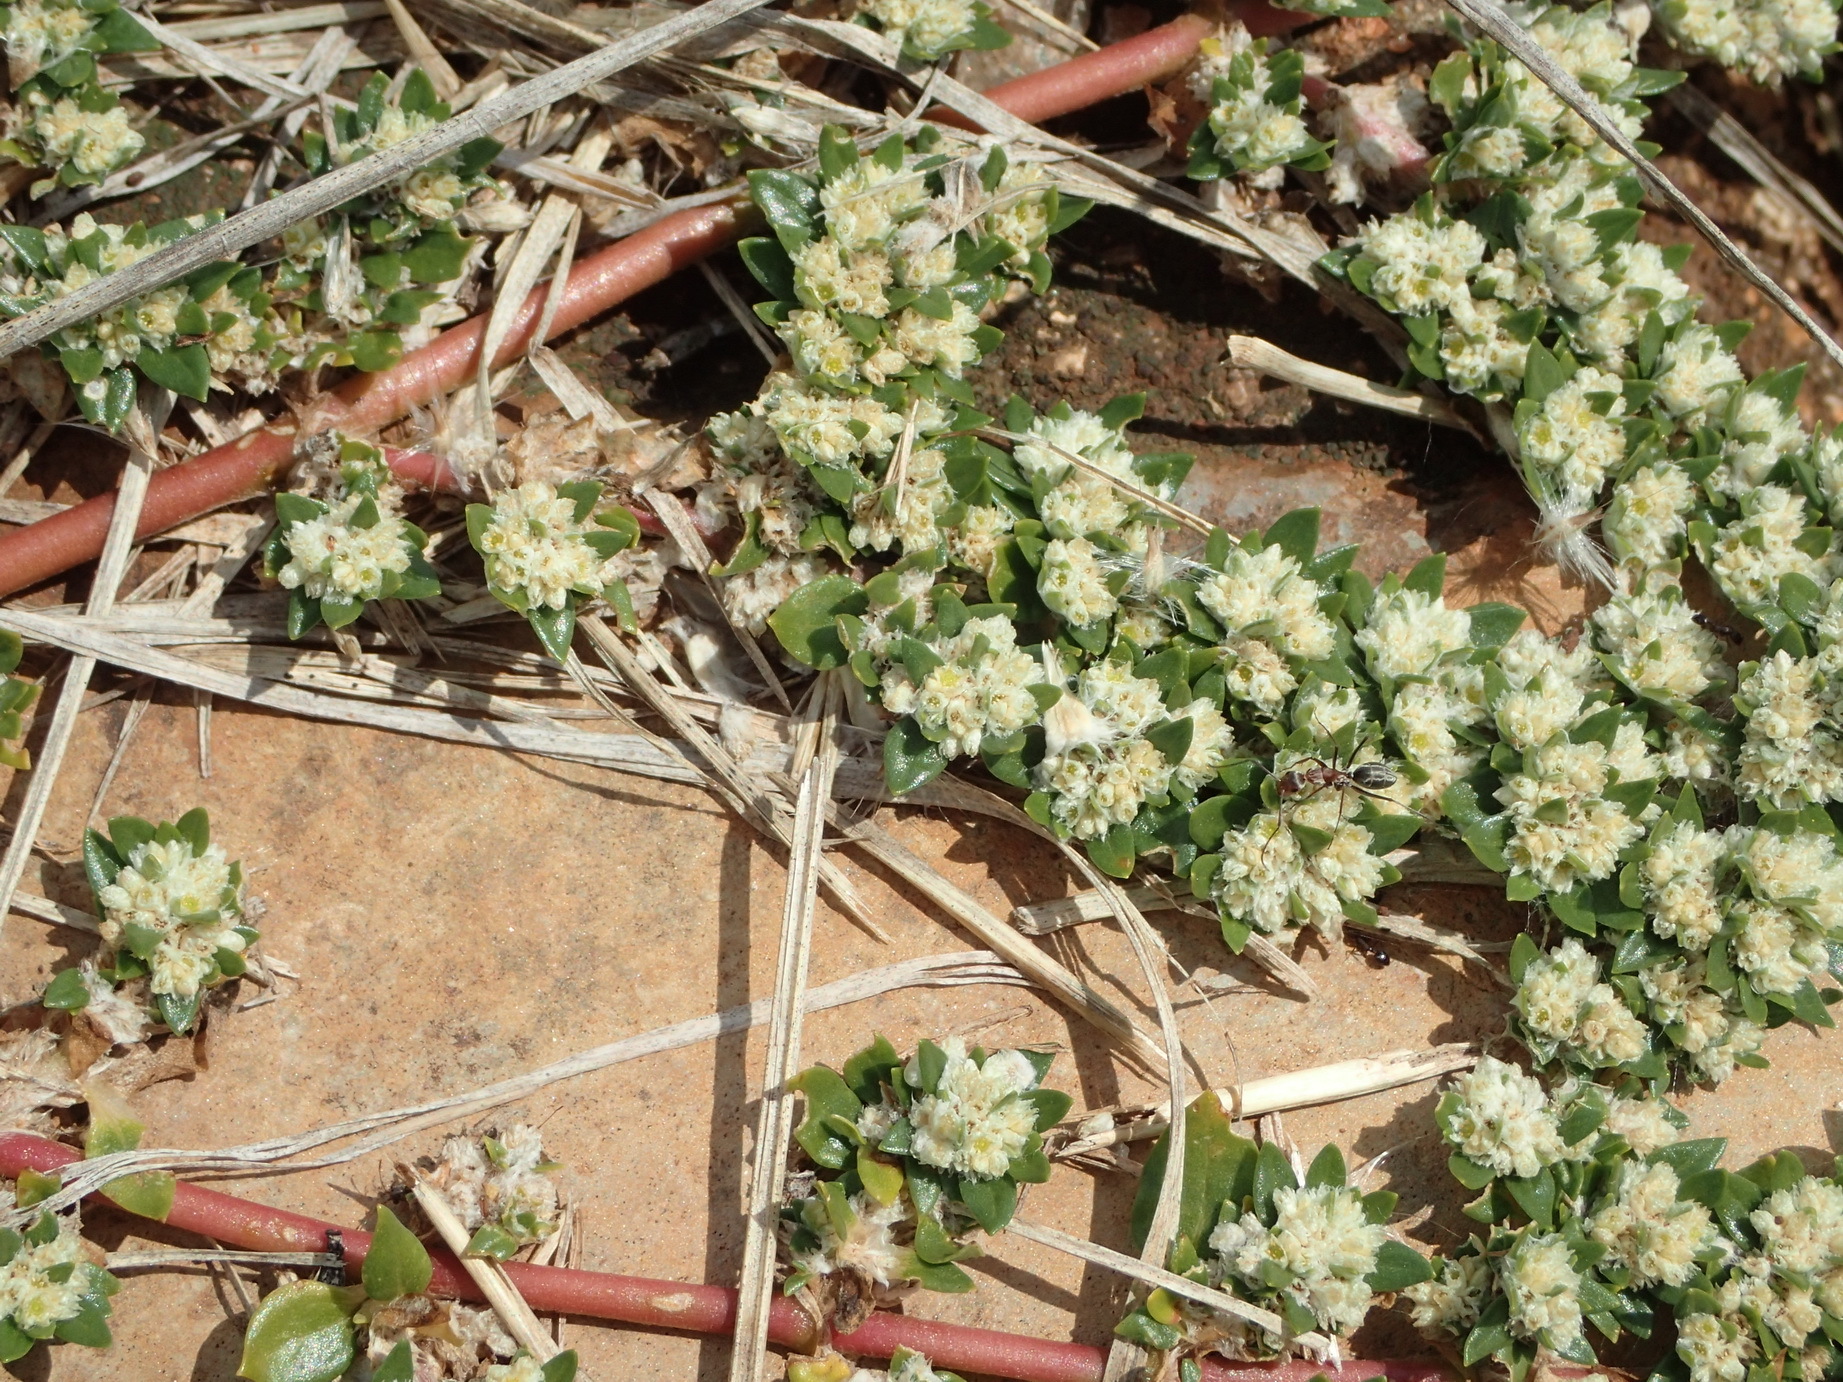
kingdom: Plantae
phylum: Tracheophyta
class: Magnoliopsida
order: Caryophyllales
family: Amaranthaceae
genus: Guilleminea
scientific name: Guilleminea densa
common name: Small matweed
